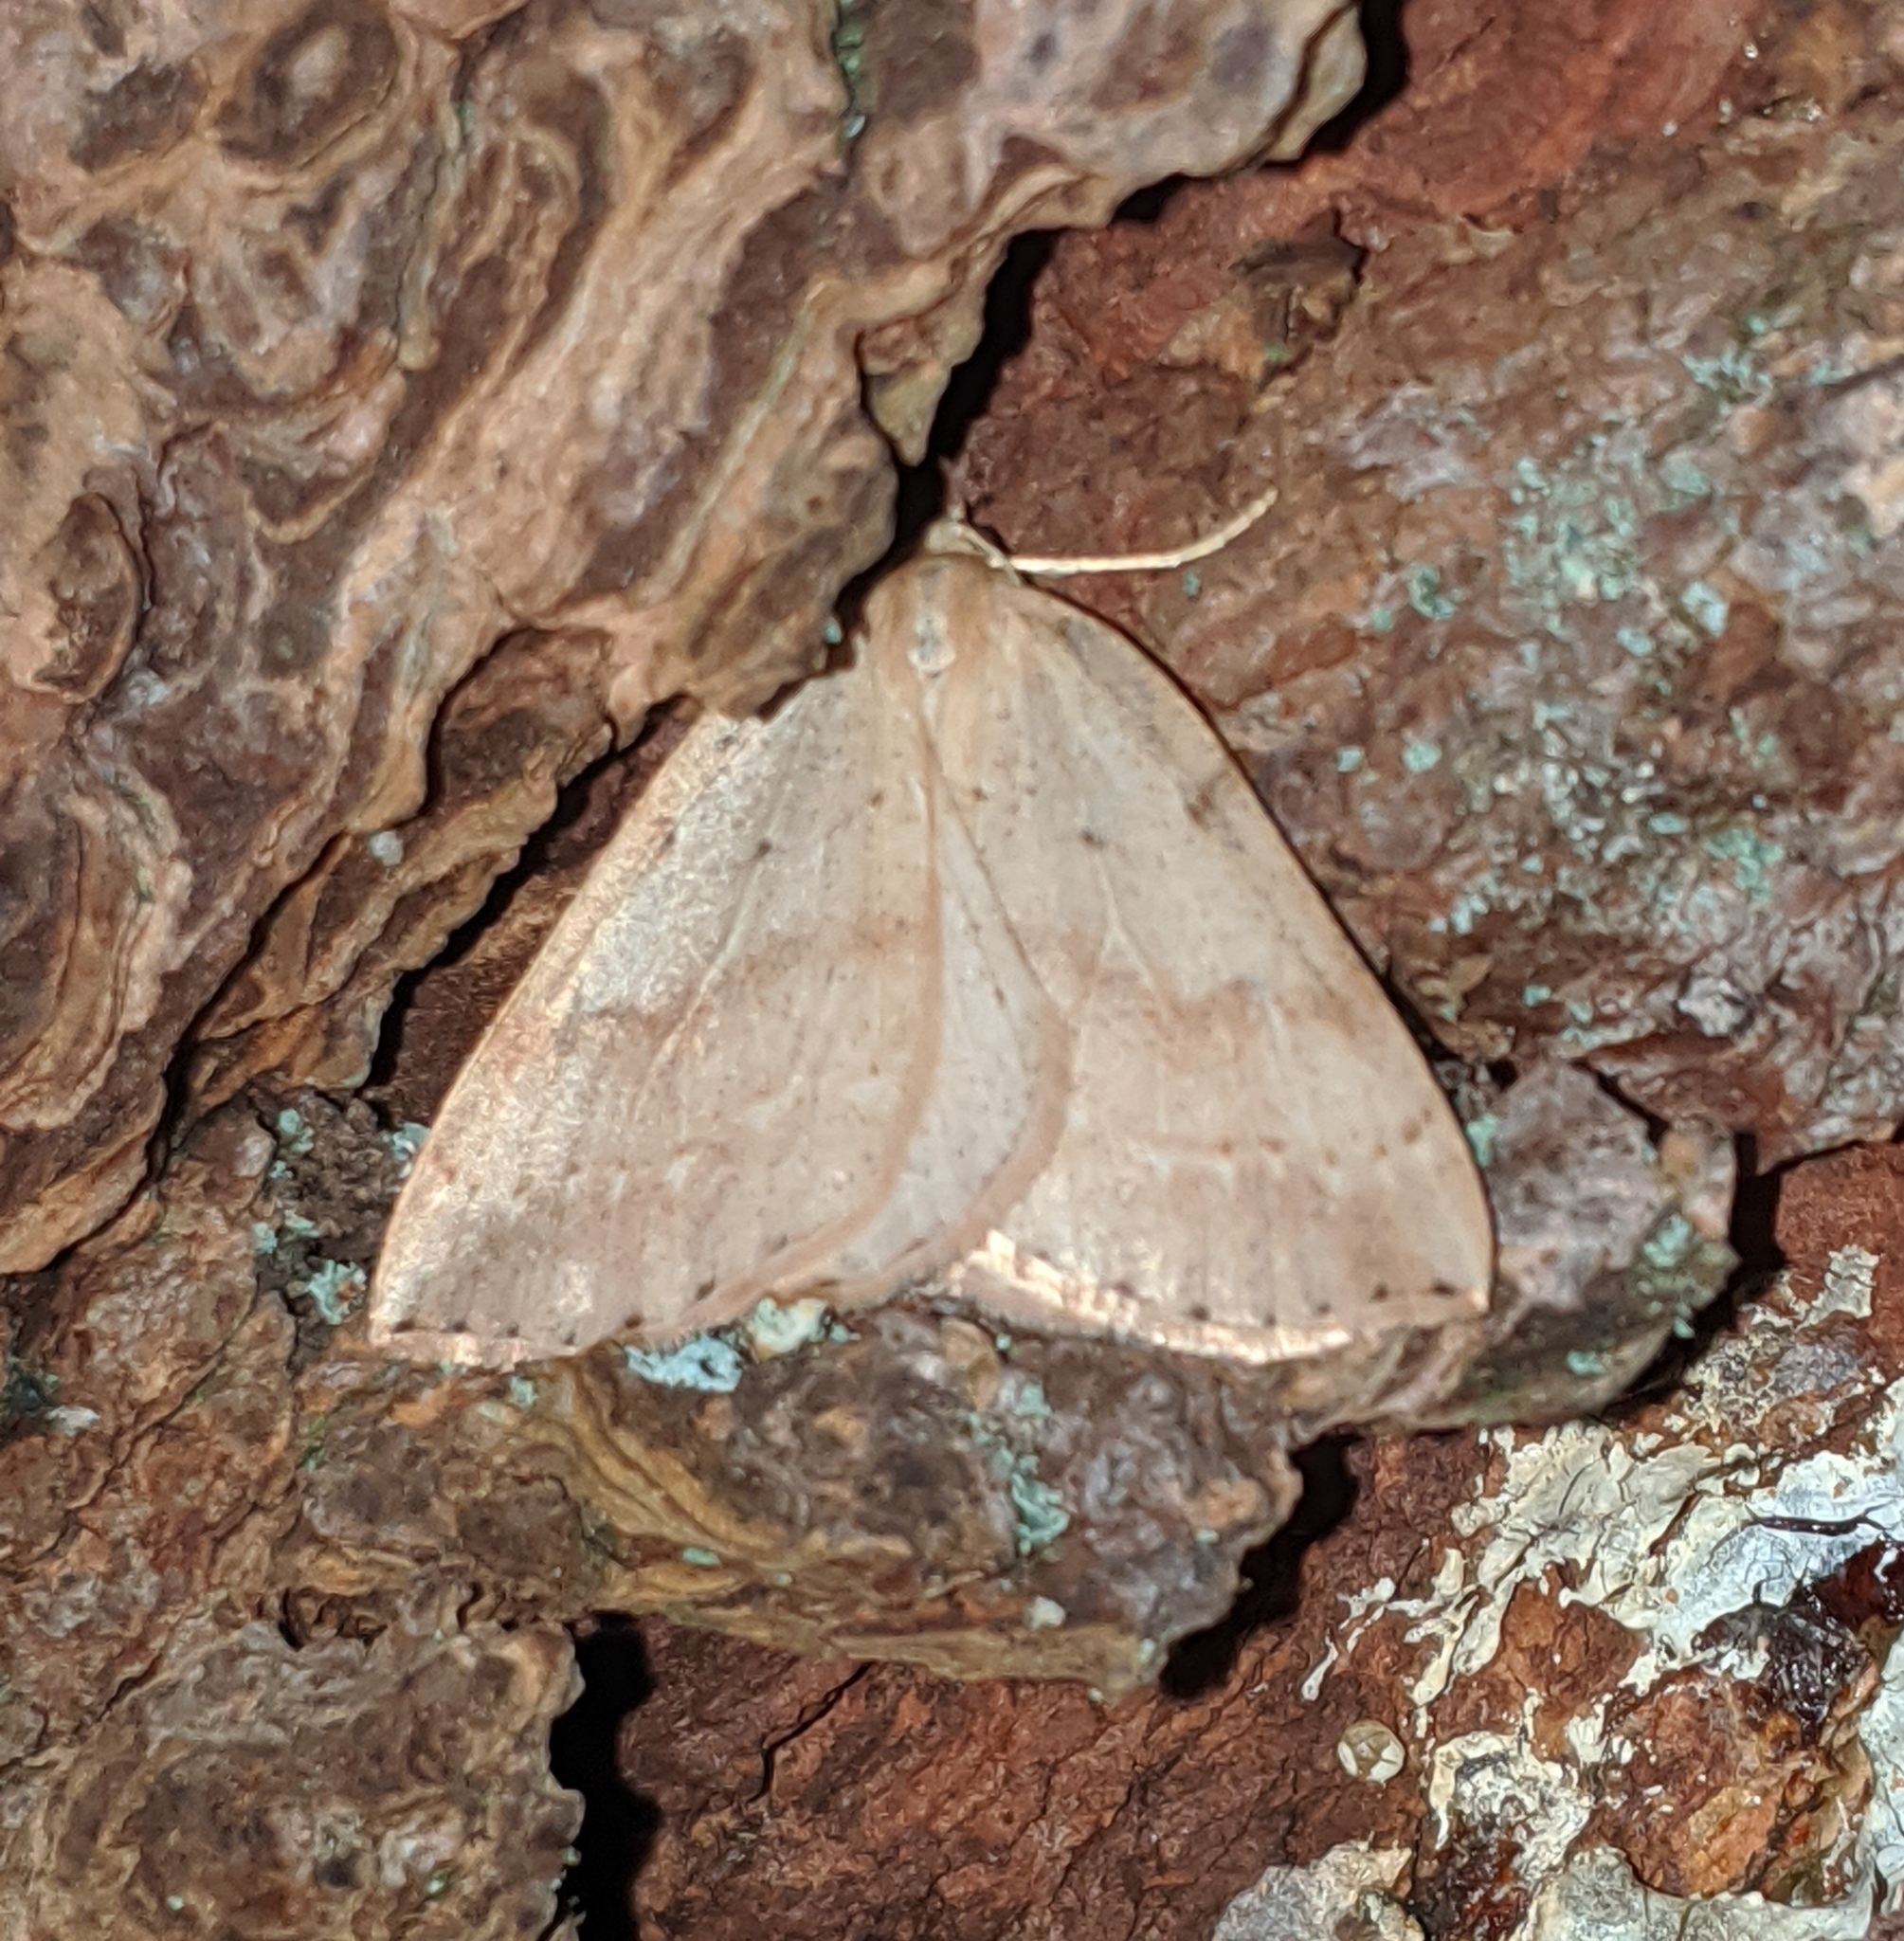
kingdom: Animalia
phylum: Arthropoda
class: Insecta
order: Lepidoptera
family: Geometridae
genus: Thallophaga
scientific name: Thallophaga hyperborea
